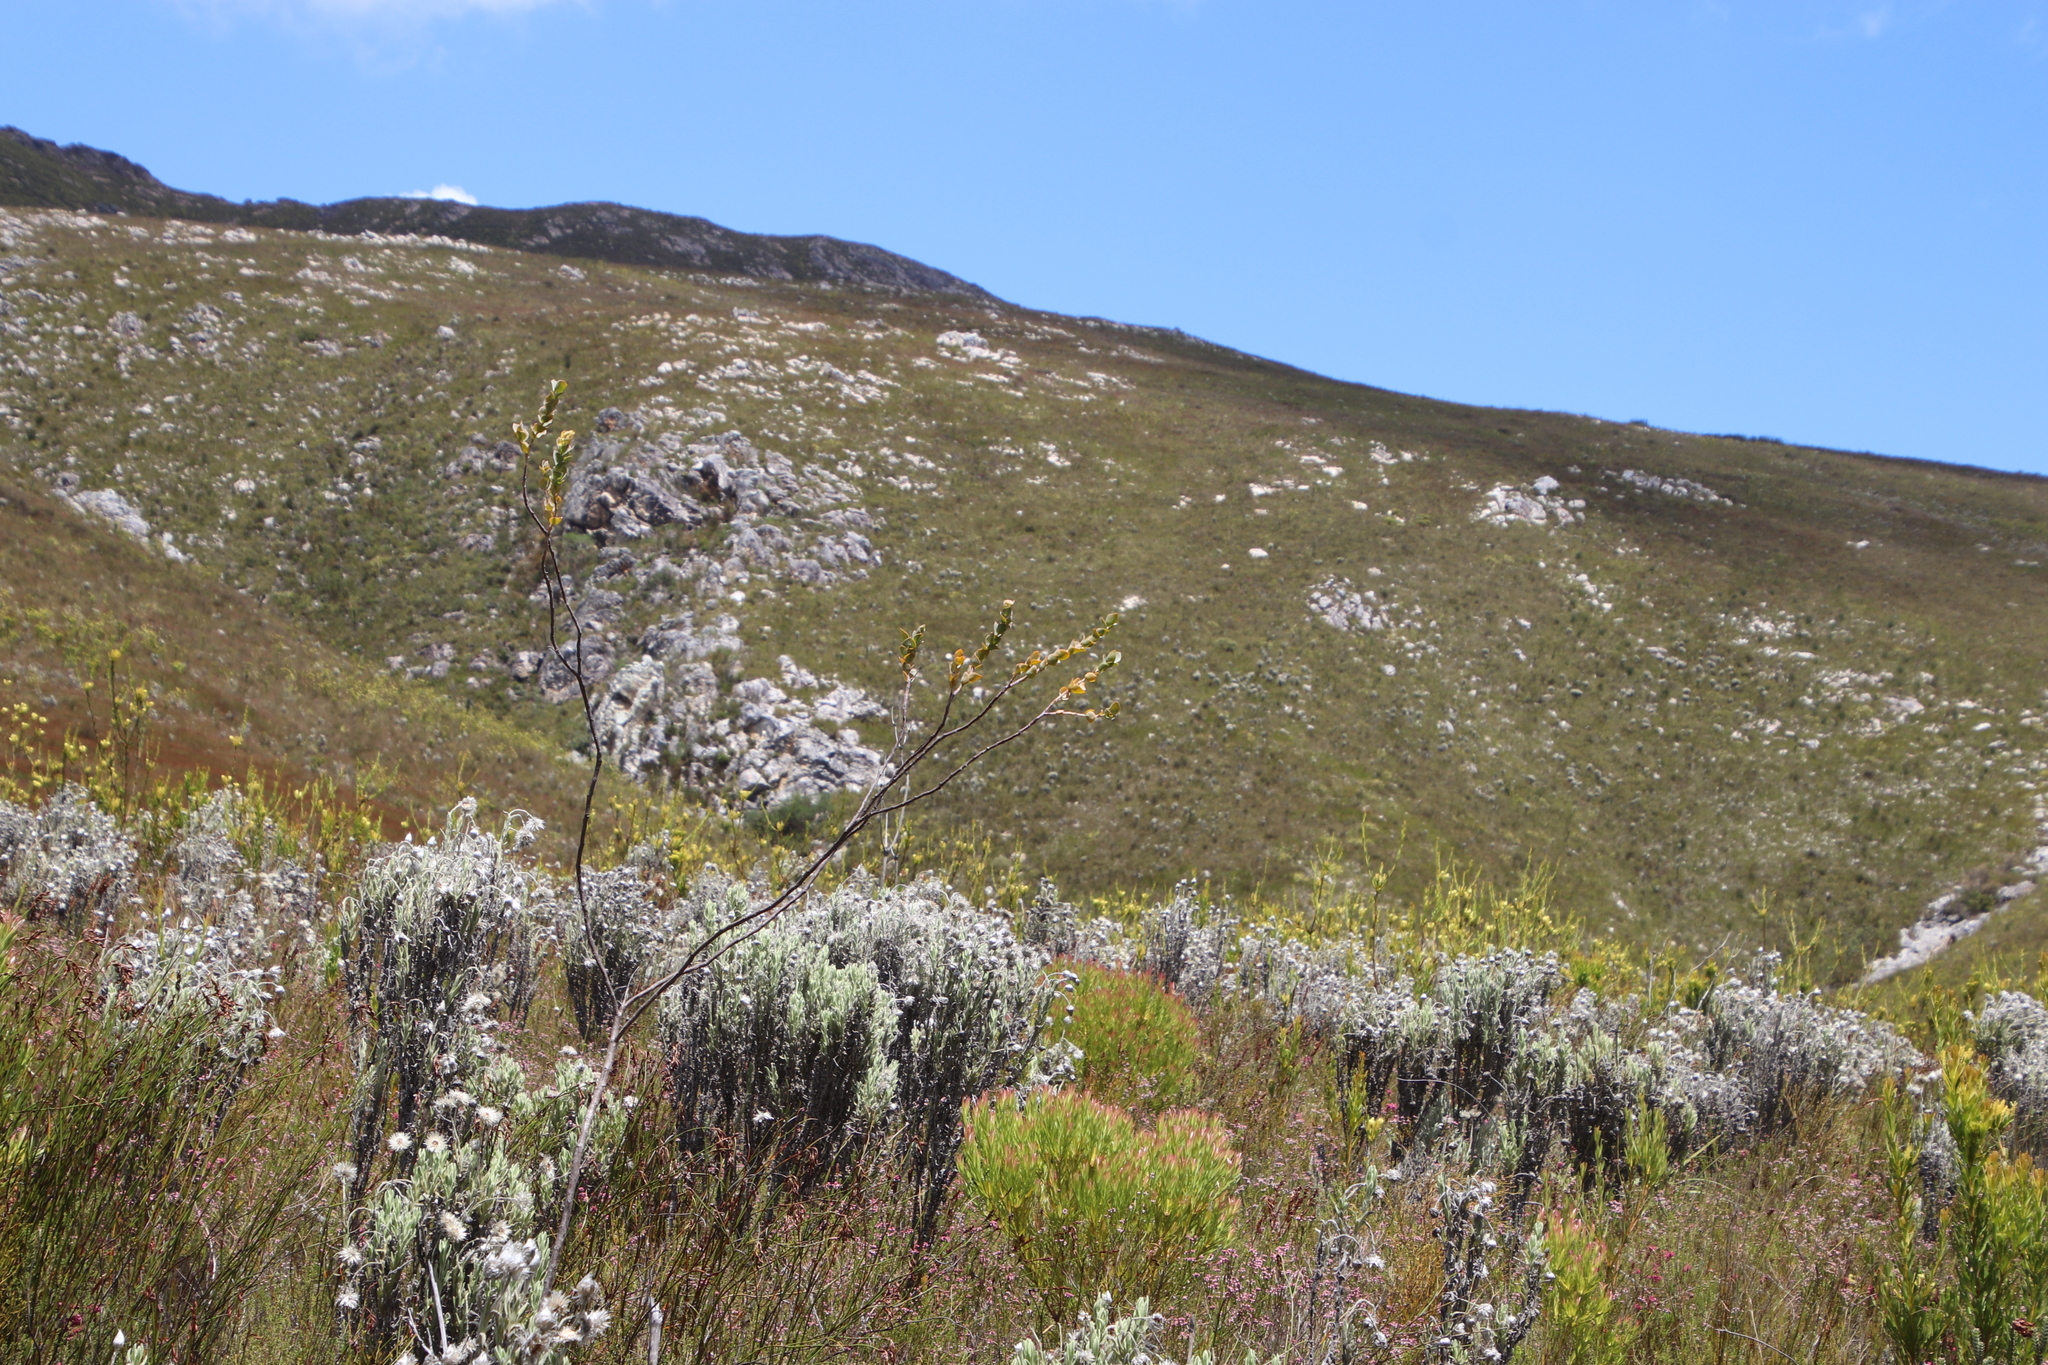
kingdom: Plantae
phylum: Tracheophyta
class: Magnoliopsida
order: Santalales
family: Thesiaceae
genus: Thesium
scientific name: Thesium euphorbioides
